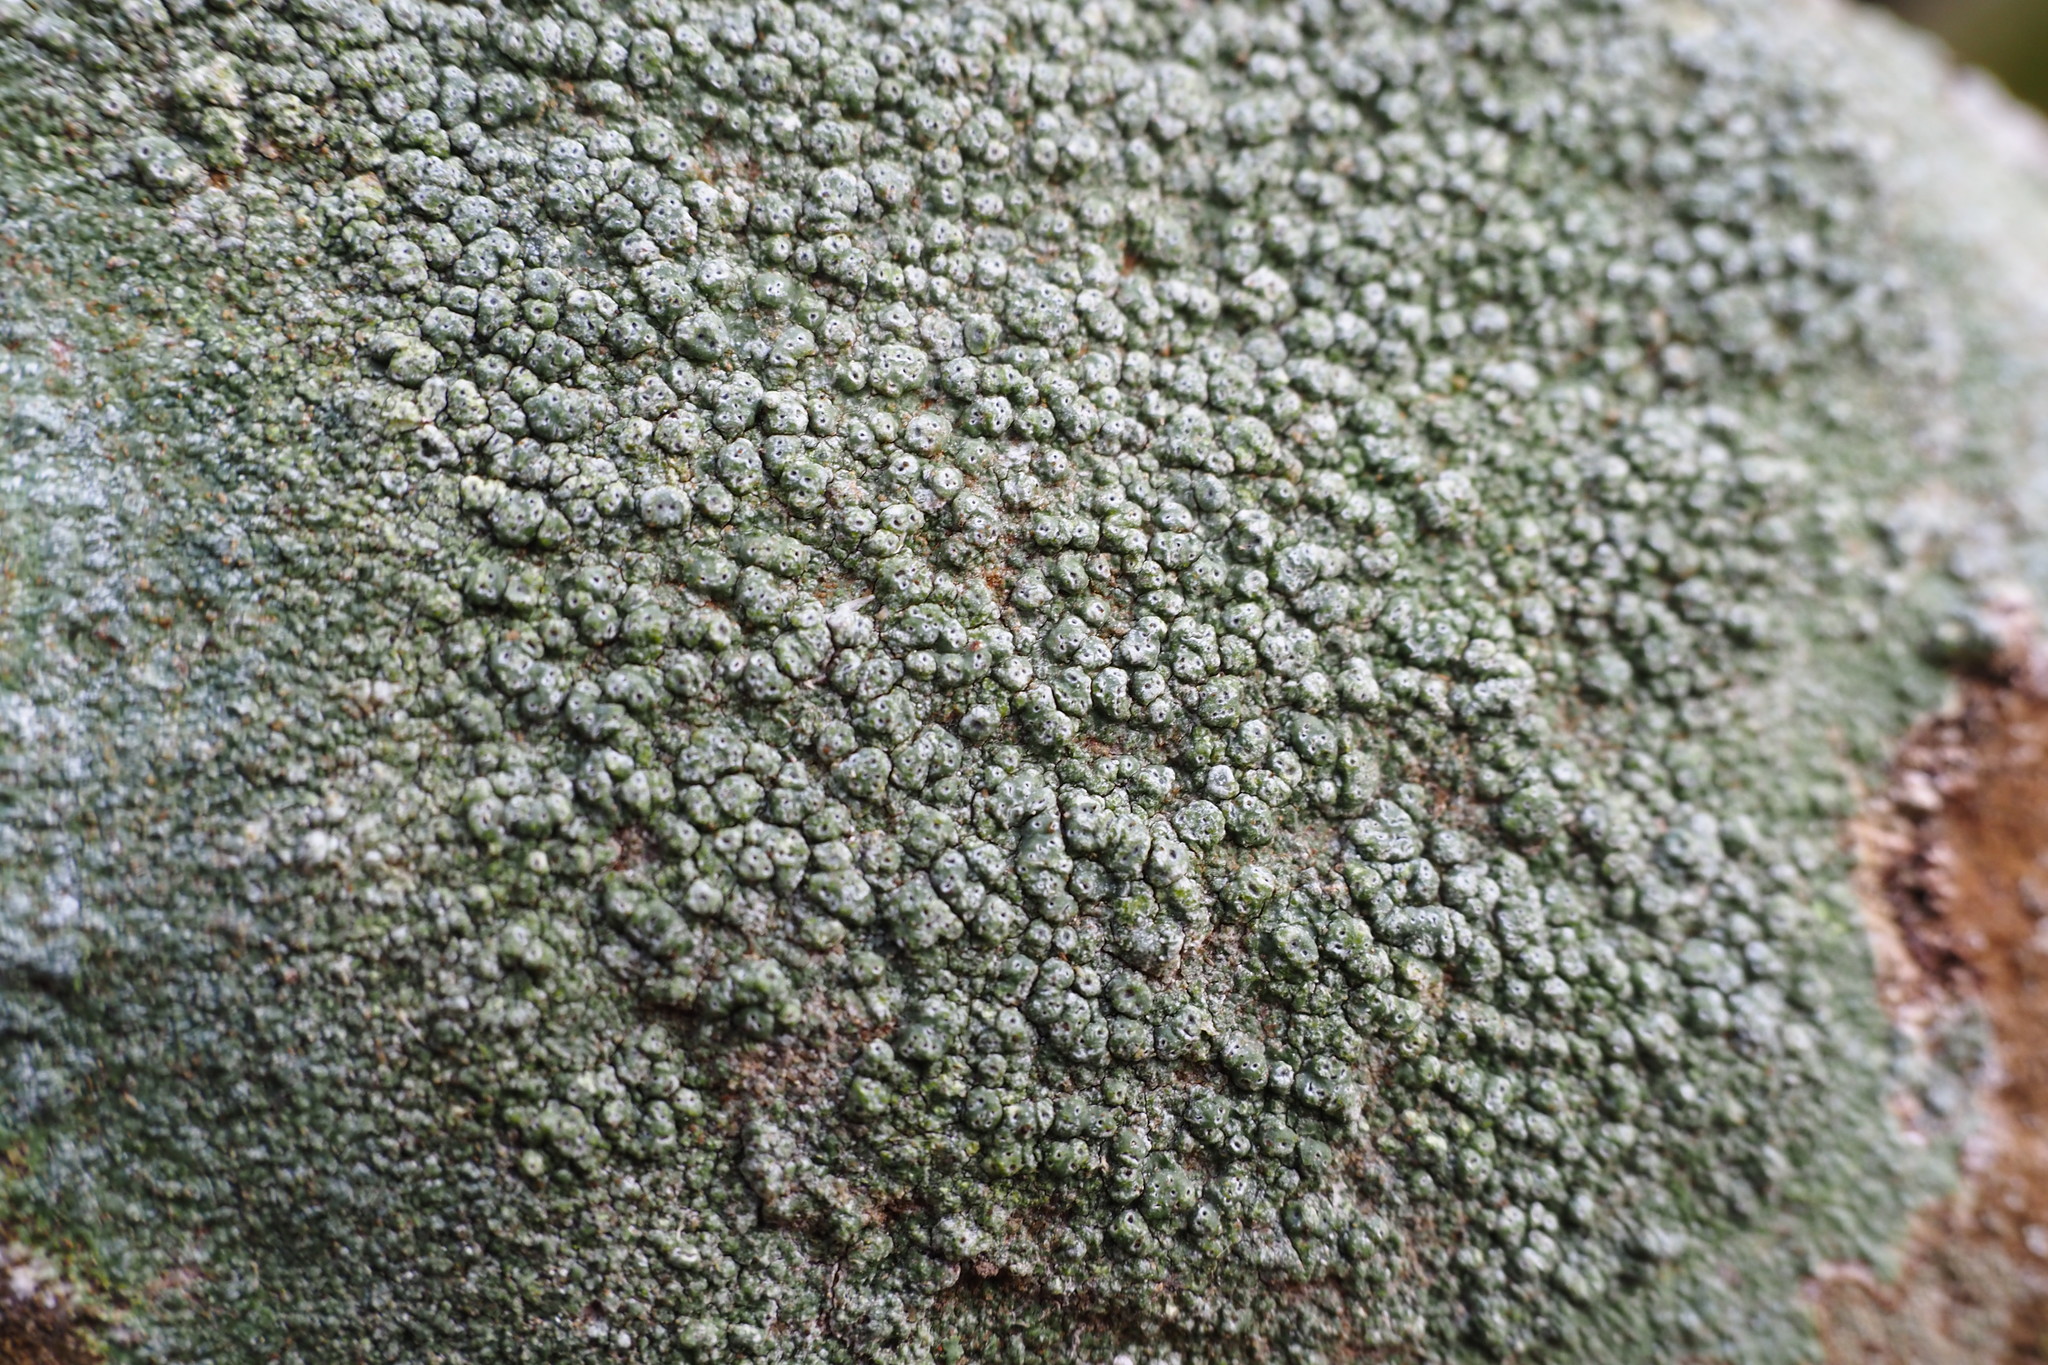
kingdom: Fungi
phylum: Ascomycota
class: Lecanoromycetes
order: Pertusariales
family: Pertusariaceae
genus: Pertusaria
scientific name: Pertusaria pertusa
